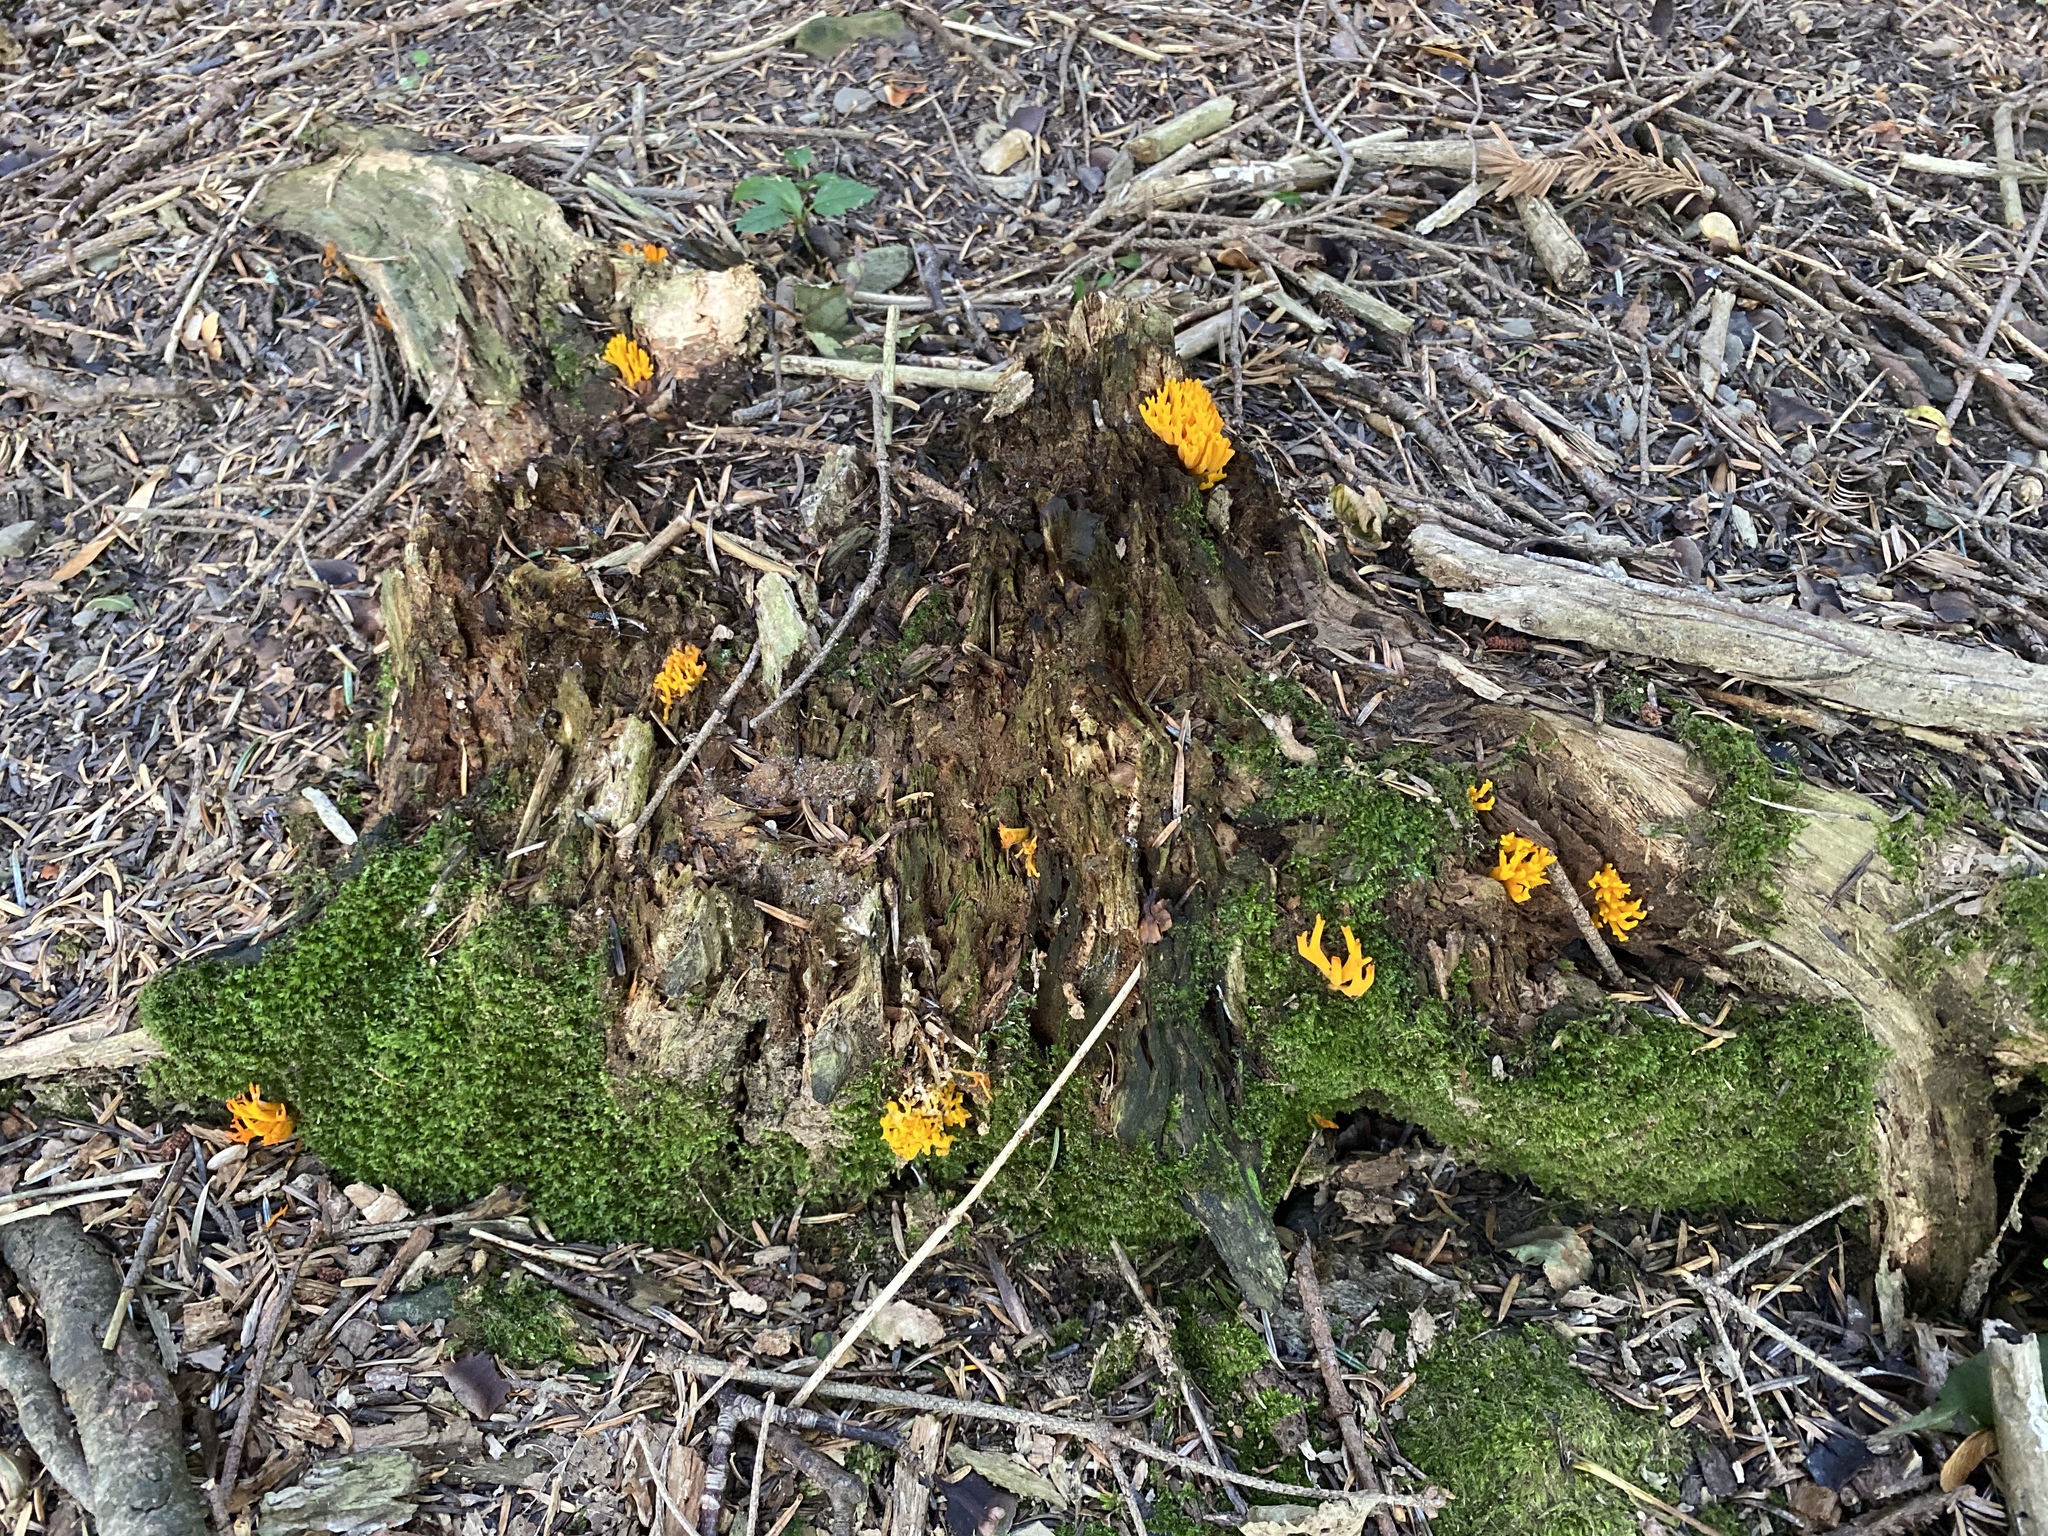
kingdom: Fungi
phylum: Basidiomycota
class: Dacrymycetes
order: Dacrymycetales
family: Dacrymycetaceae
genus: Calocera
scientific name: Calocera viscosa
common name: Yellow stagshorn
